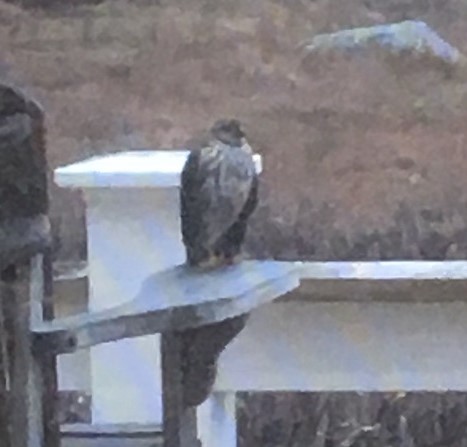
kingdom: Animalia
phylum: Chordata
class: Aves
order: Accipitriformes
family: Accipitridae
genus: Accipiter
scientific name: Accipiter
